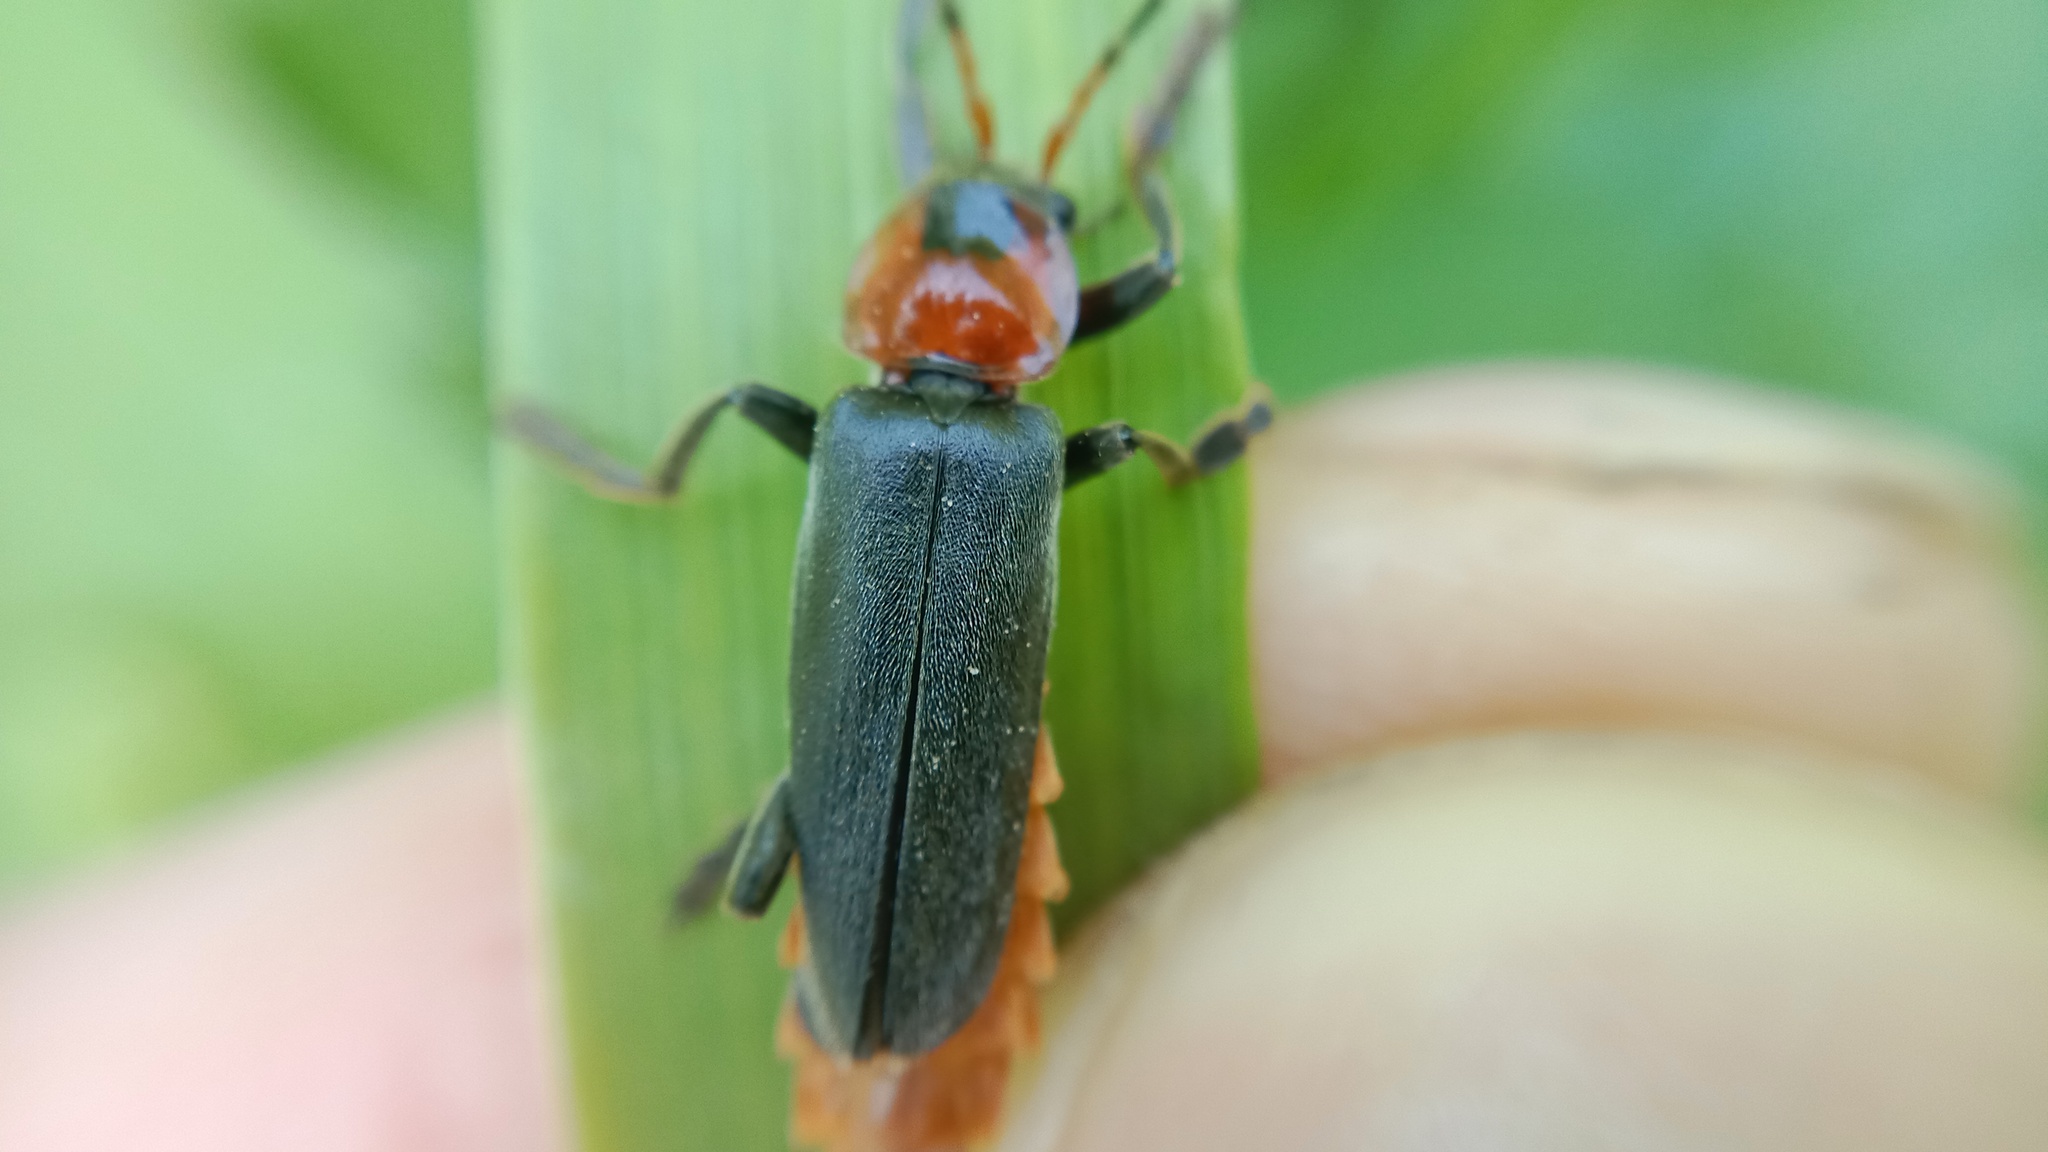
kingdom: Animalia
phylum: Arthropoda
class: Insecta
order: Coleoptera
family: Cantharidae
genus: Cantharis
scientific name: Cantharis fusca
